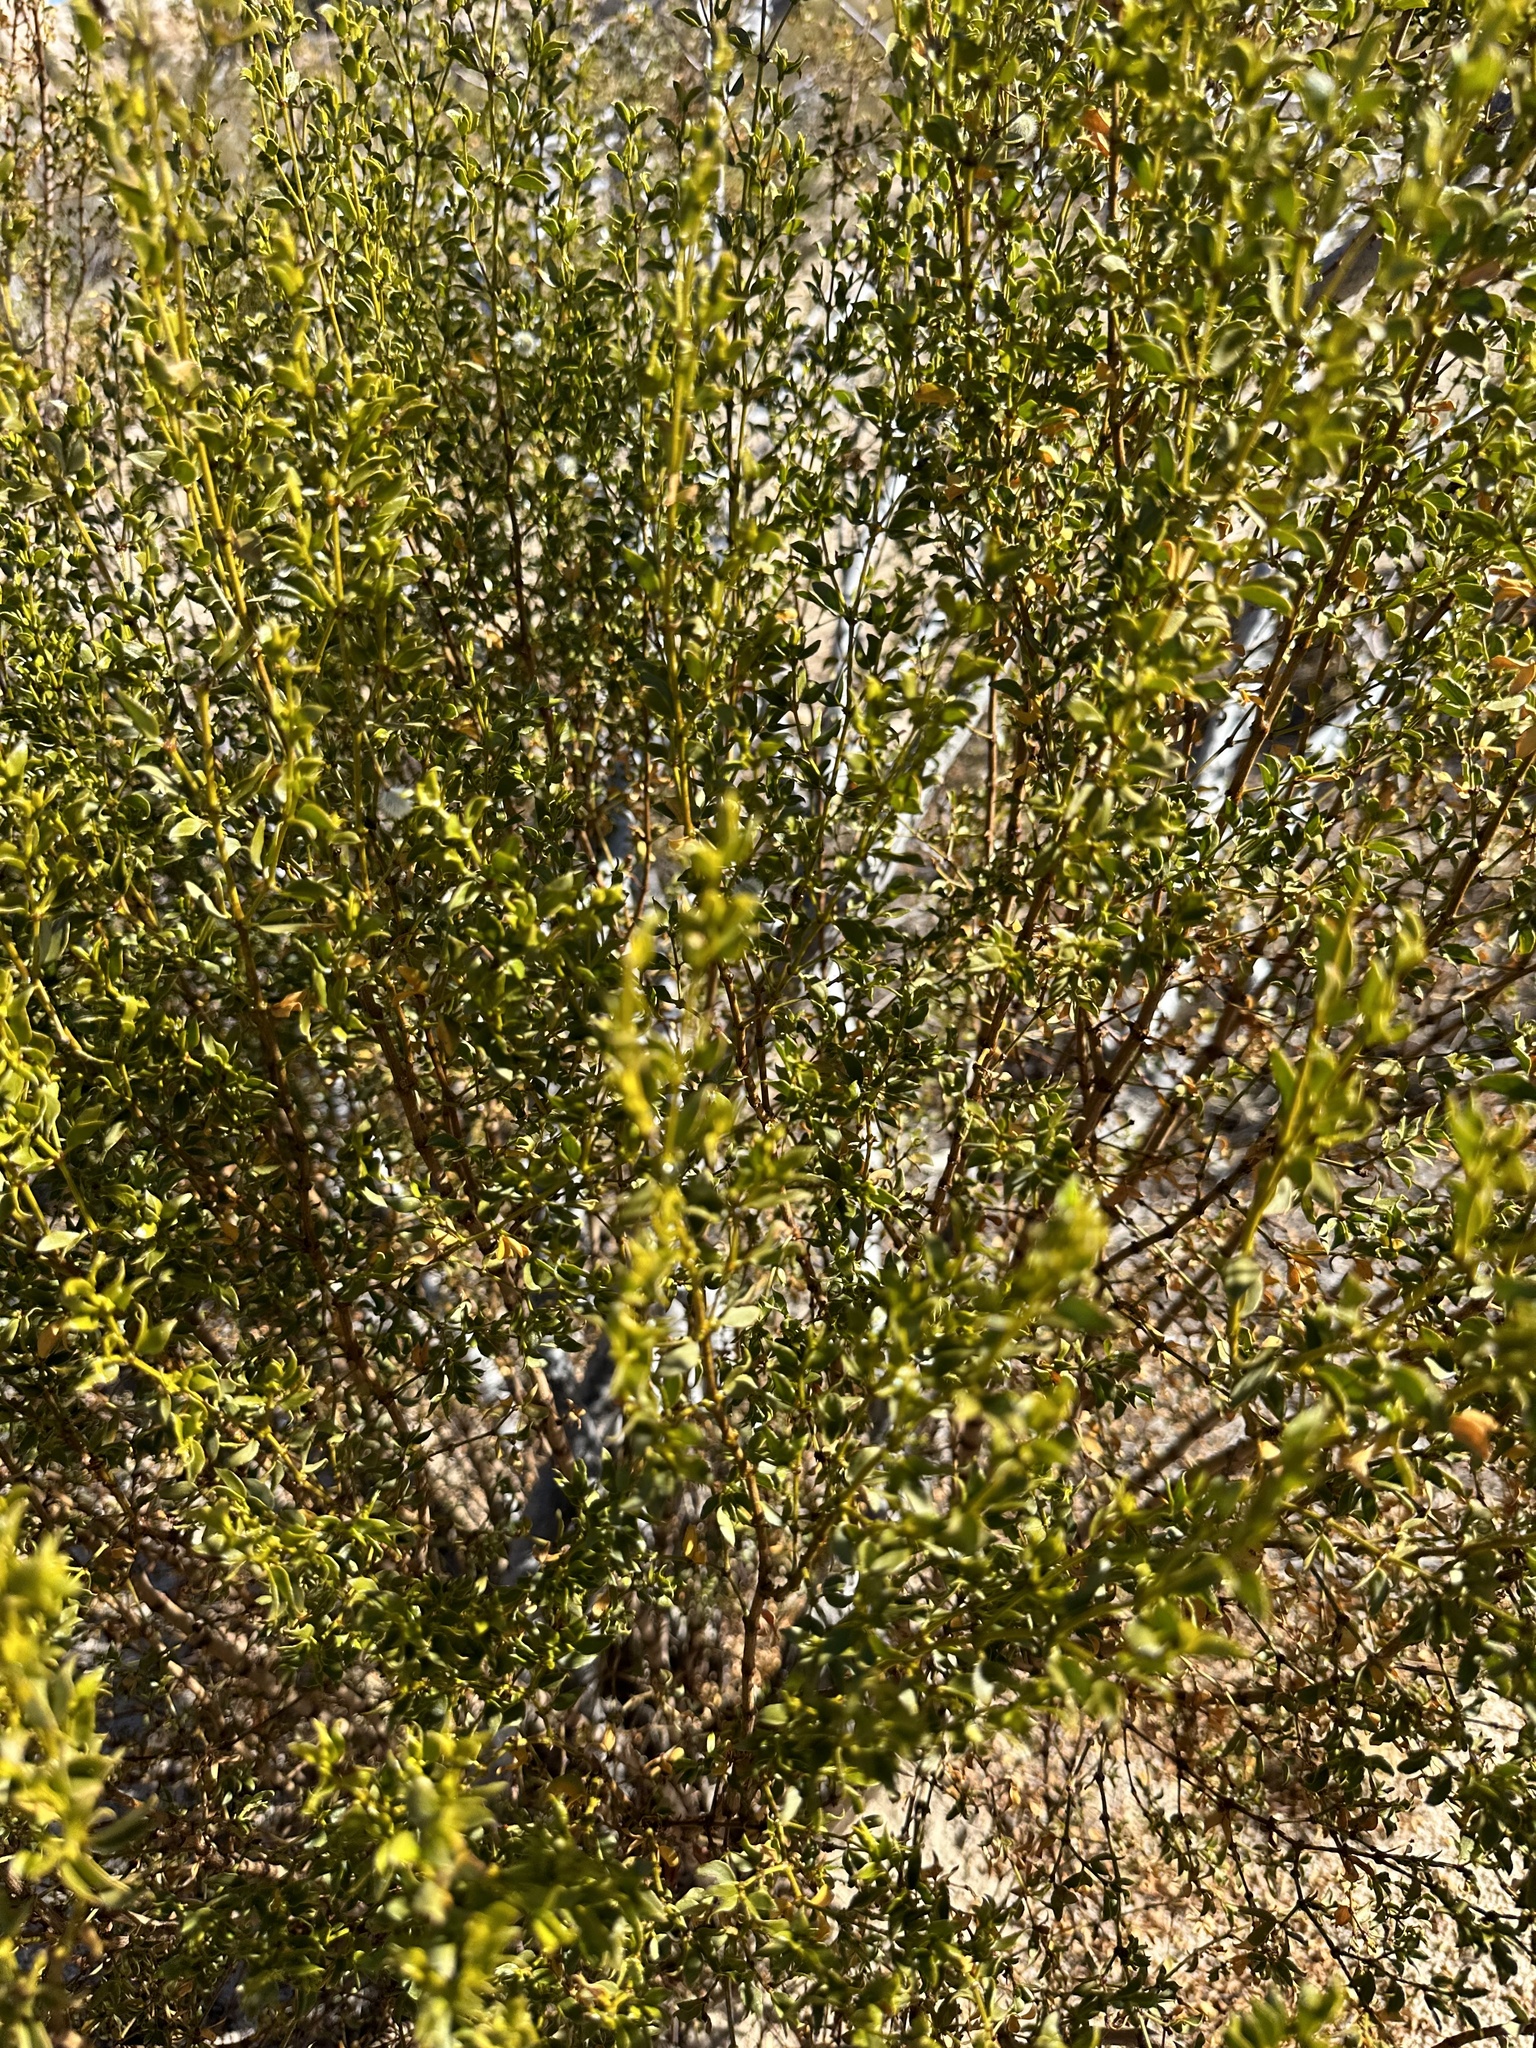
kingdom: Plantae
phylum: Tracheophyta
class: Magnoliopsida
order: Zygophyllales
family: Zygophyllaceae
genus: Larrea
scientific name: Larrea tridentata
